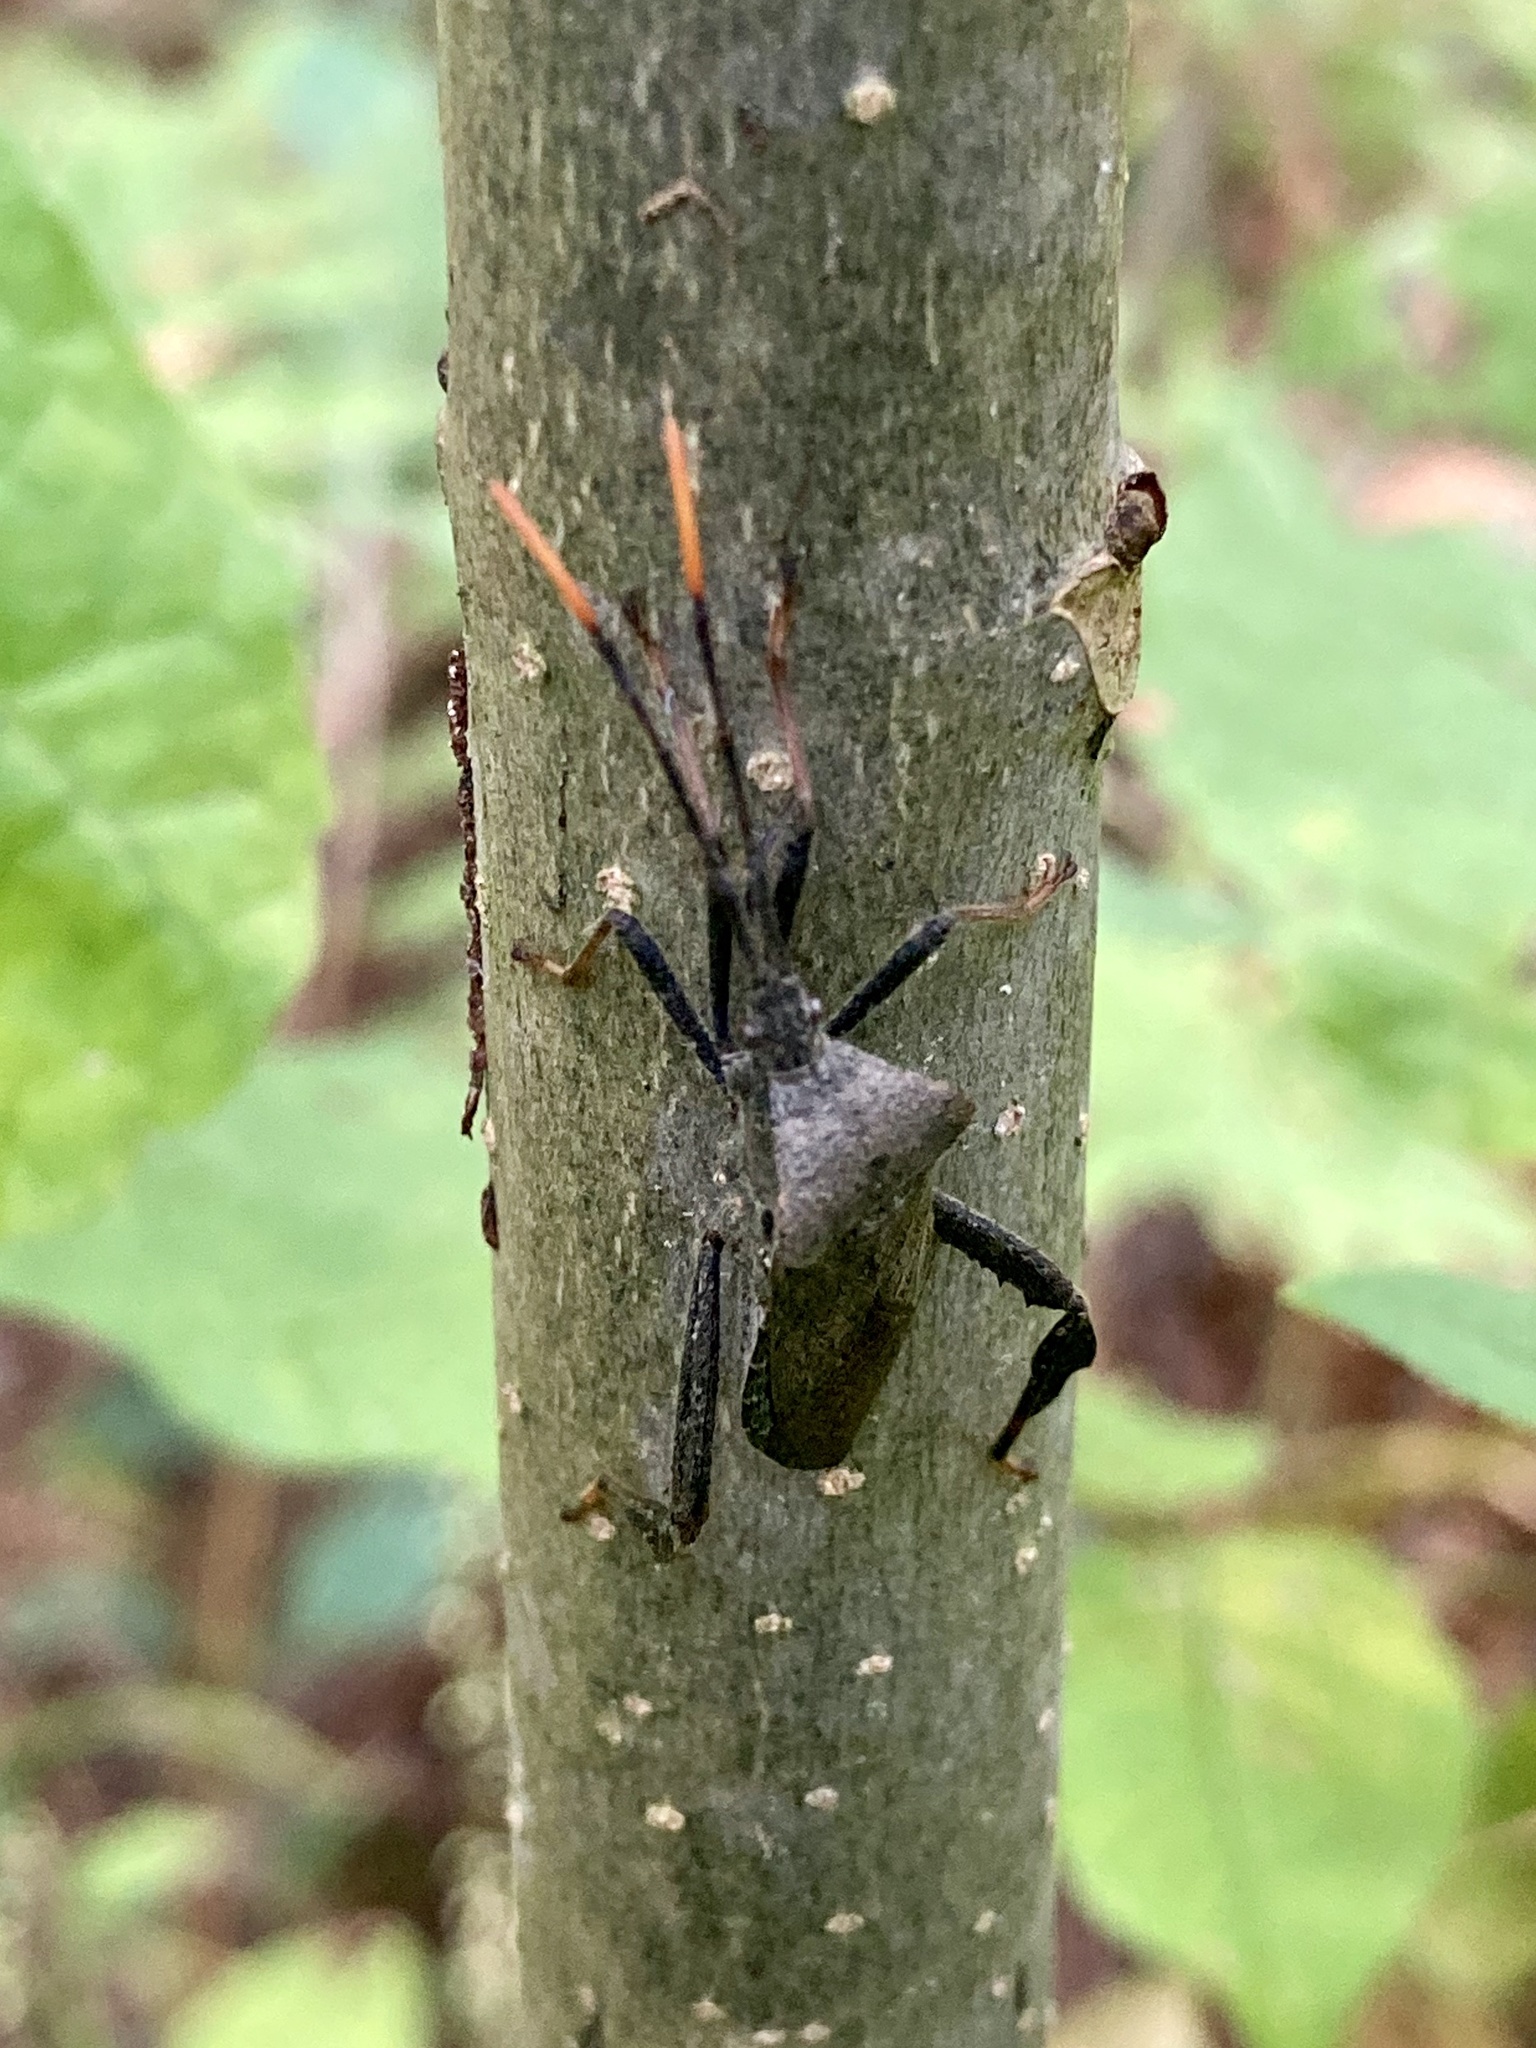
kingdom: Animalia
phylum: Arthropoda
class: Insecta
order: Hemiptera
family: Coreidae
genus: Acanthocephala
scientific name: Acanthocephala terminalis
